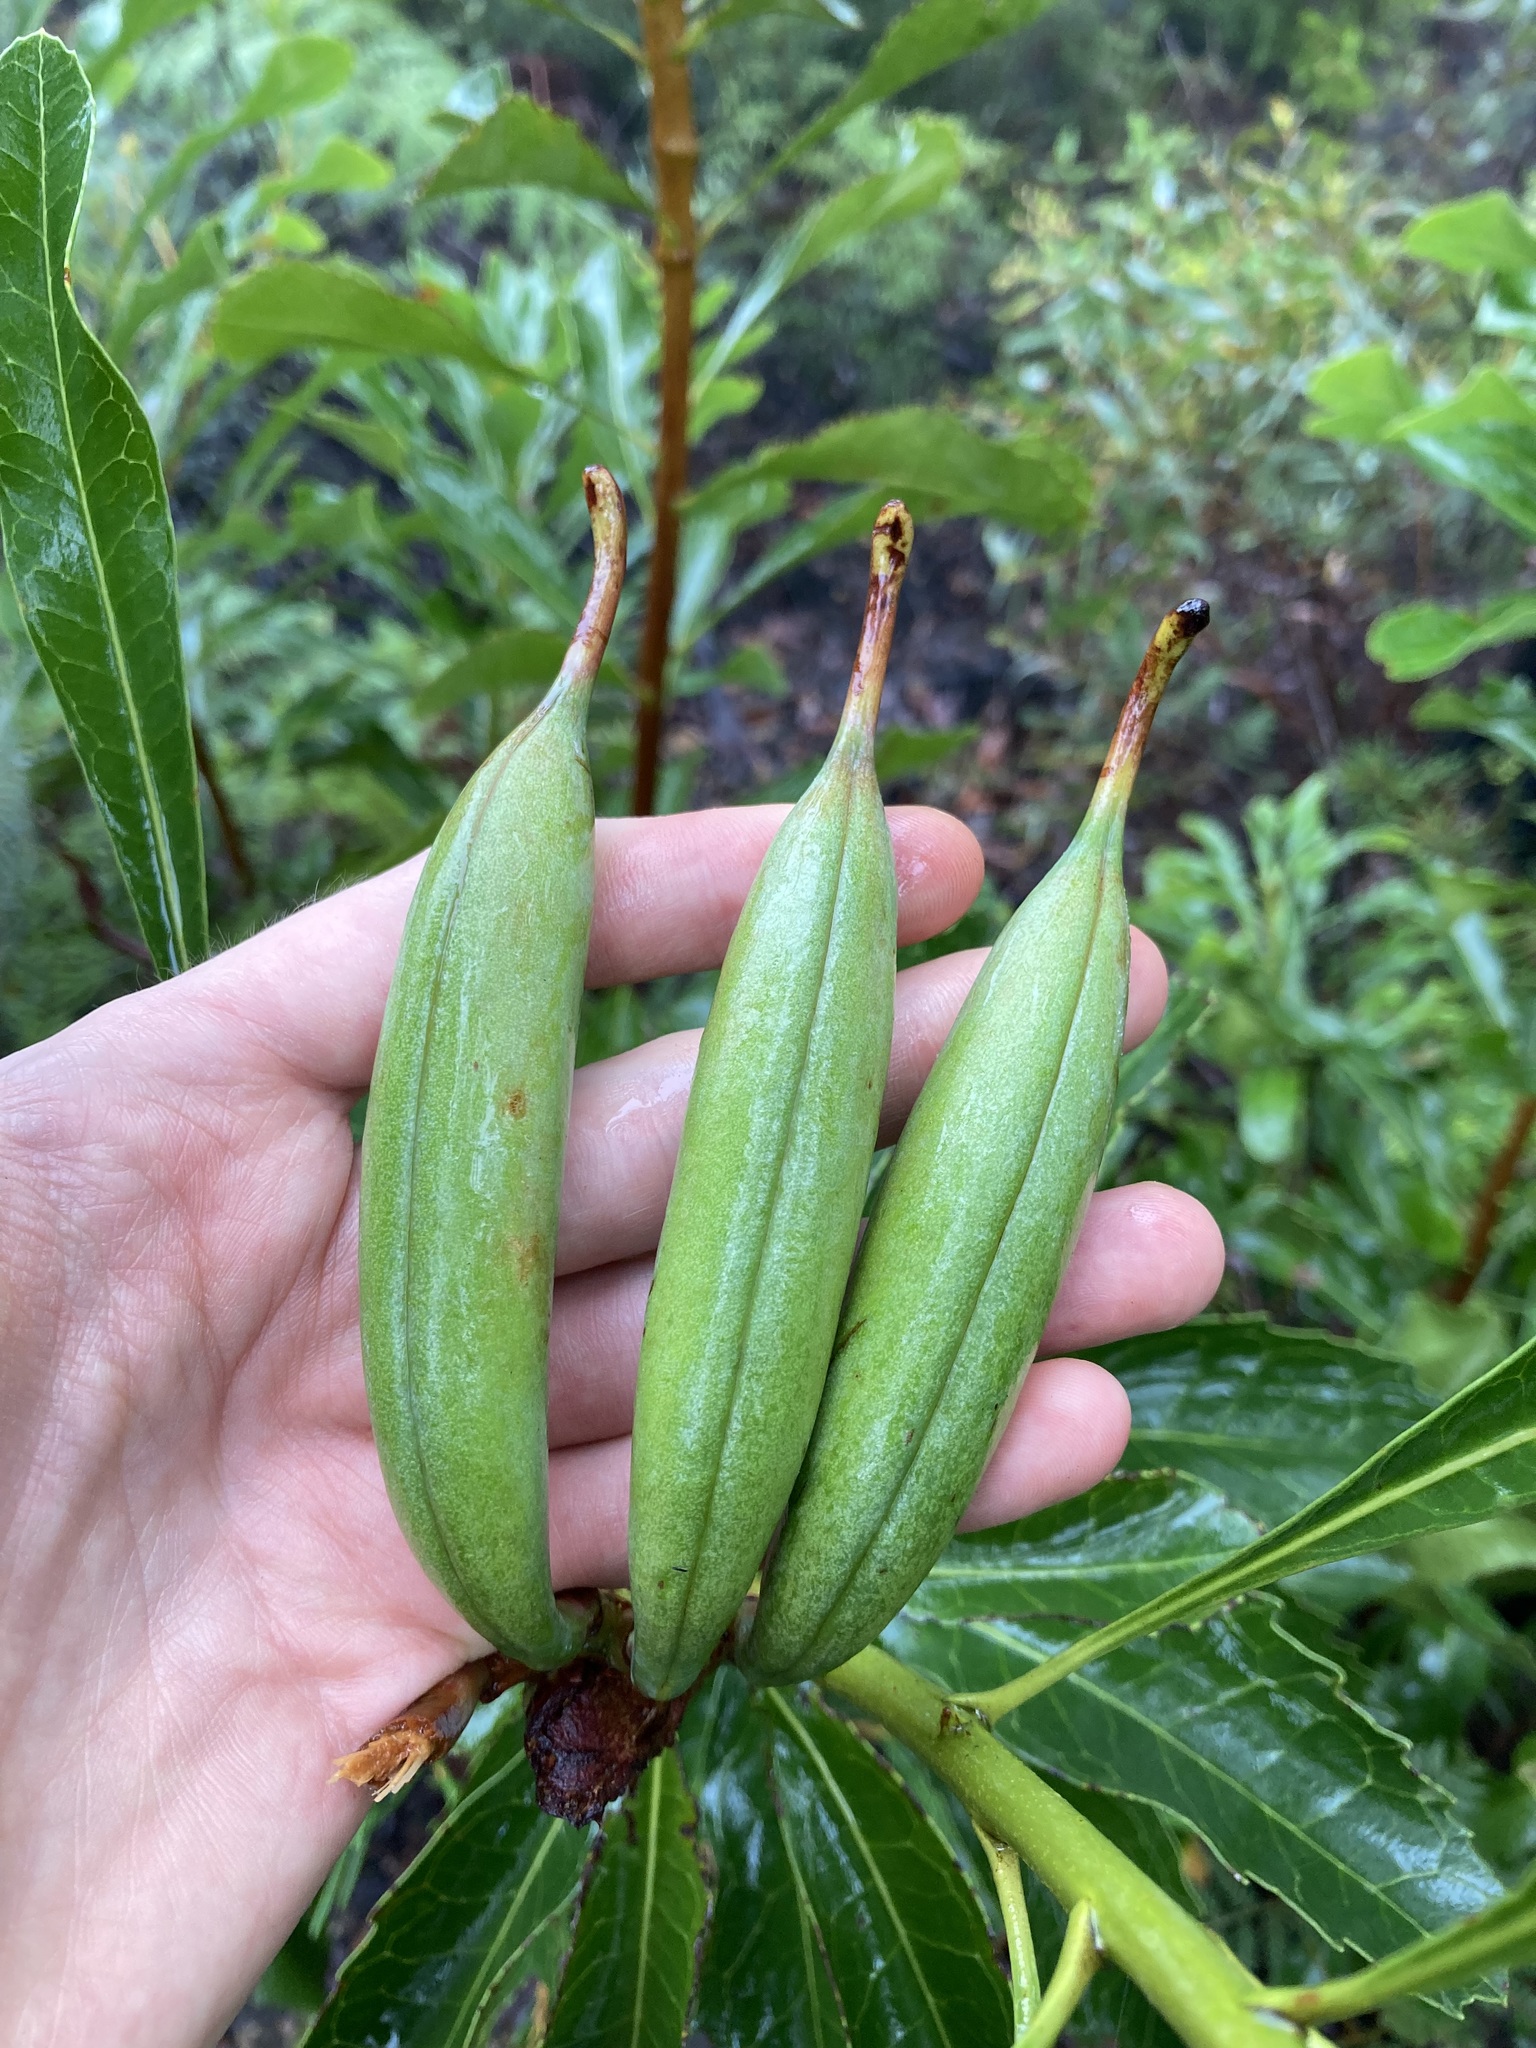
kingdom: Plantae
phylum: Tracheophyta
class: Magnoliopsida
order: Proteales
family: Proteaceae
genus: Telopea
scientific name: Telopea speciosissima
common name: New south wales waratah
